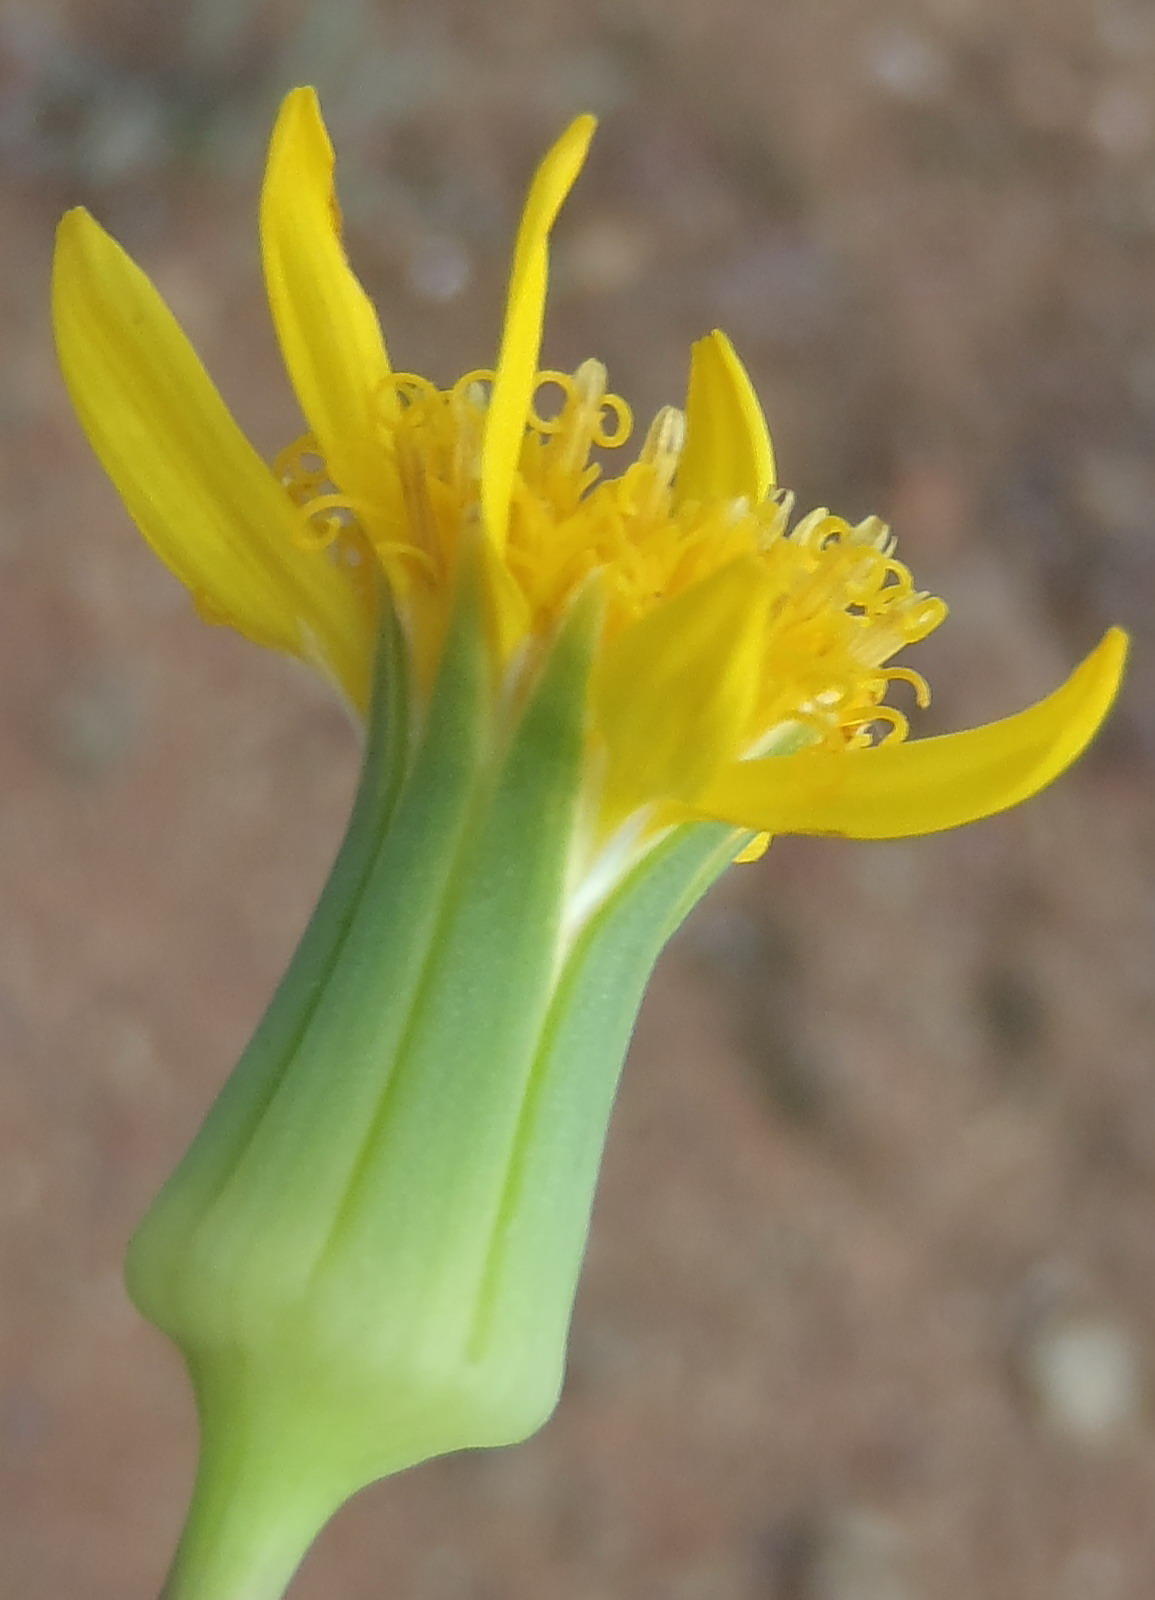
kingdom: Plantae
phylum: Tracheophyta
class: Magnoliopsida
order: Asterales
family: Asteraceae
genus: Senecio
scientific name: Senecio abbreviatus
